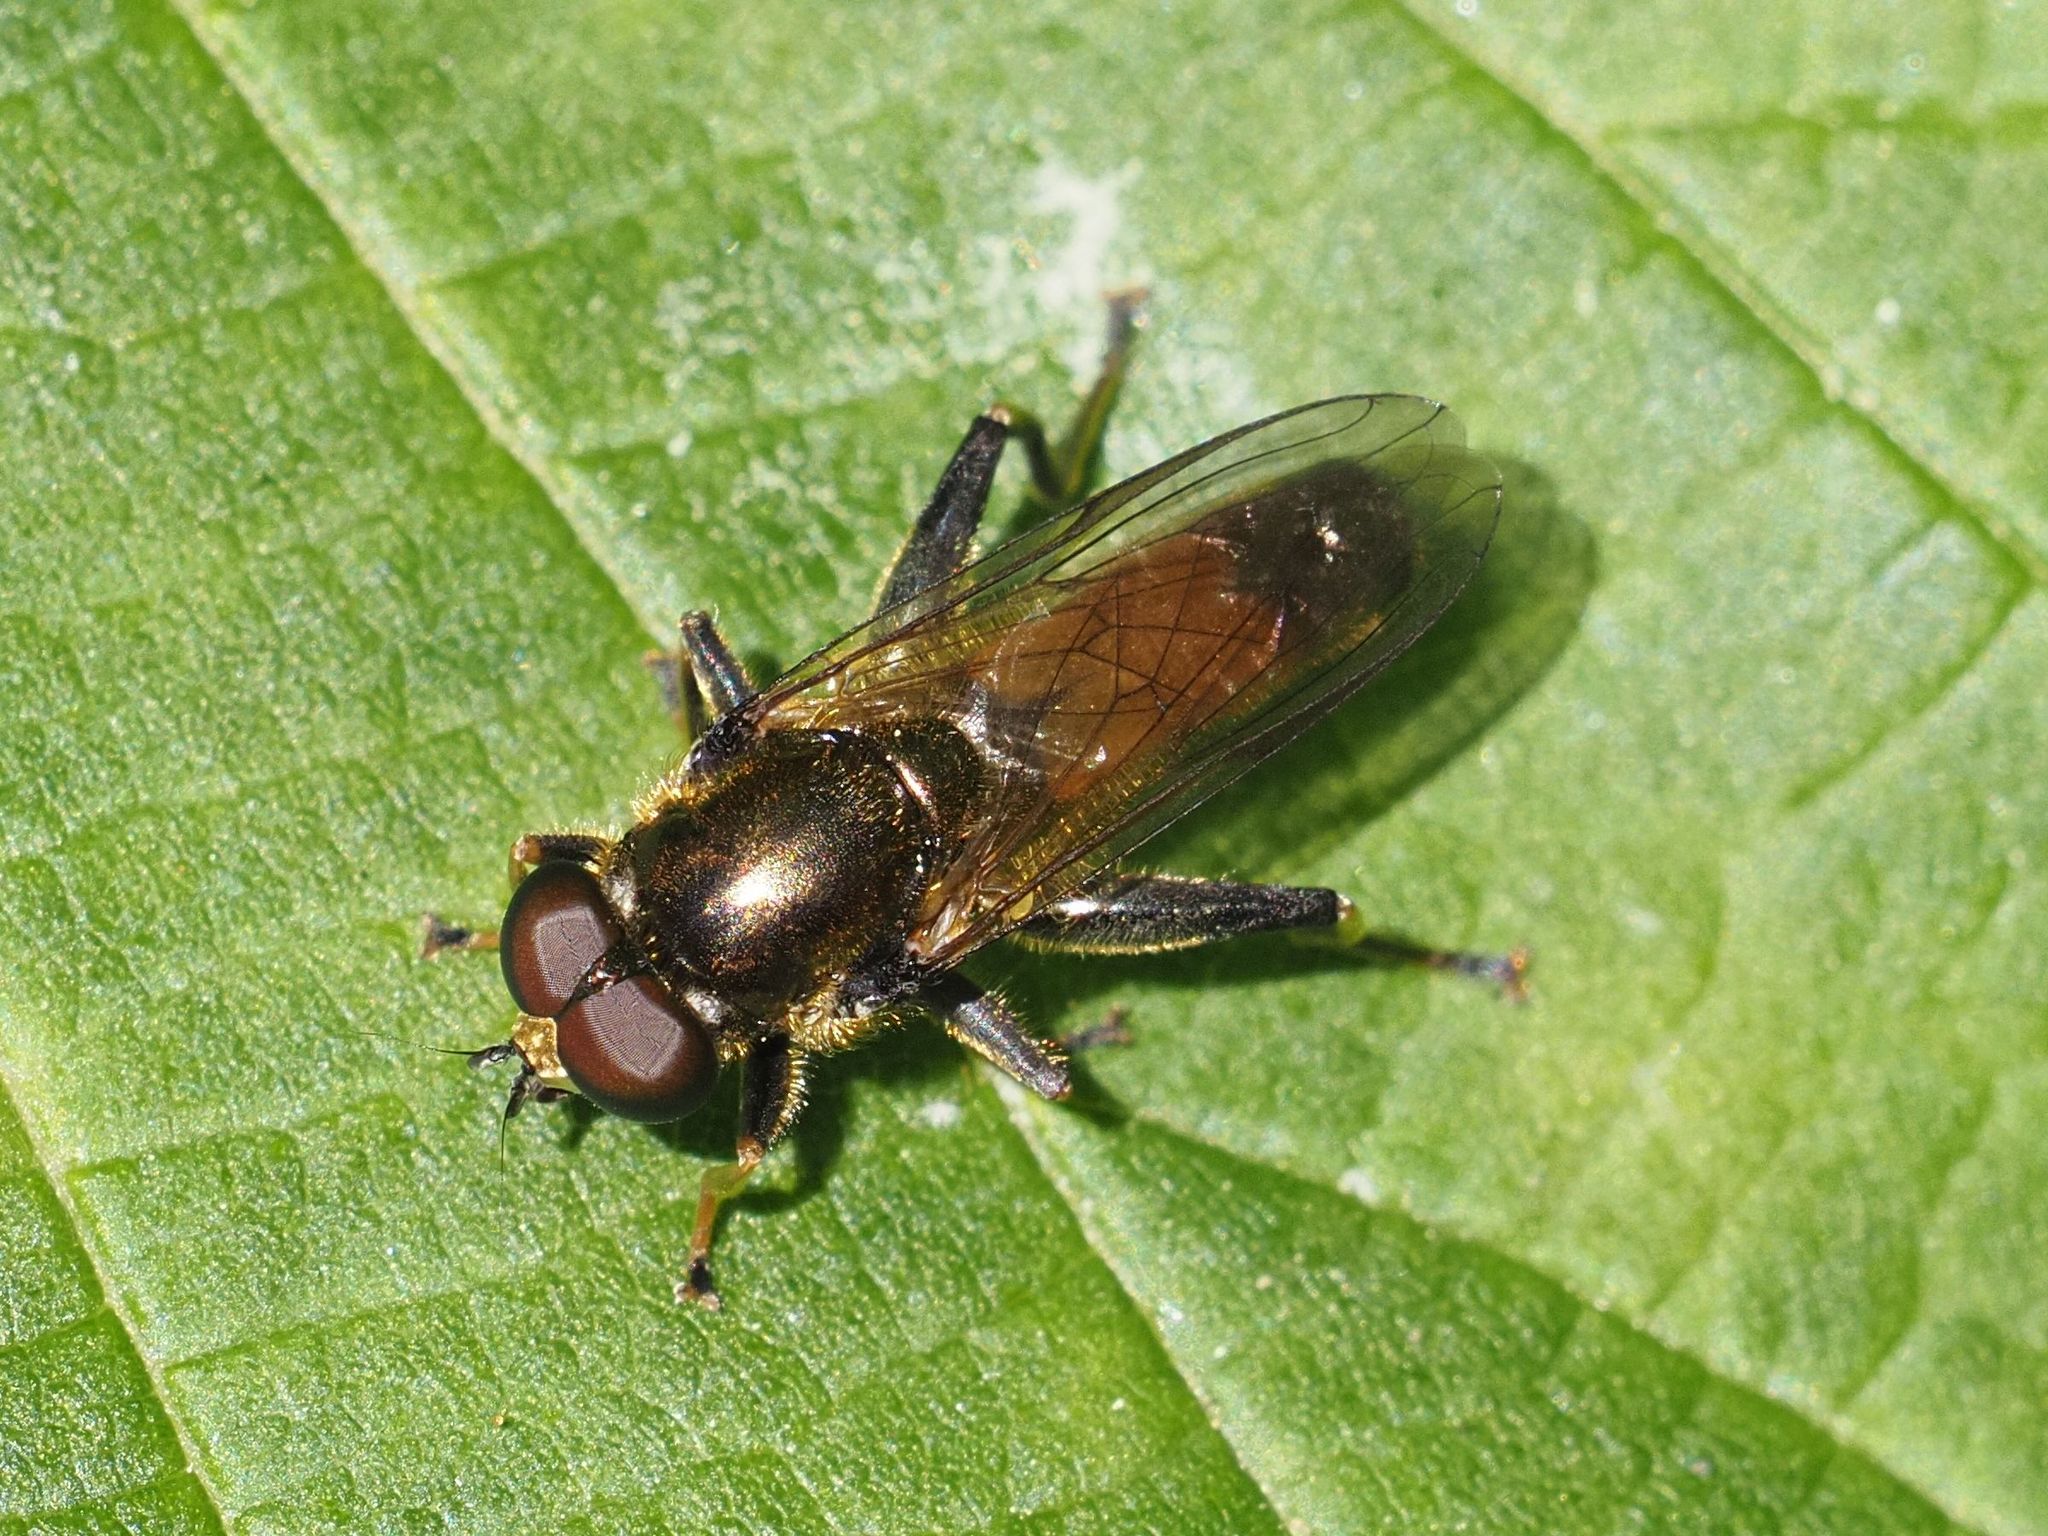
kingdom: Animalia
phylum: Arthropoda
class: Insecta
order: Diptera
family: Syrphidae
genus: Xylota
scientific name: Xylota segnis
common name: Brown-toed forest fly
